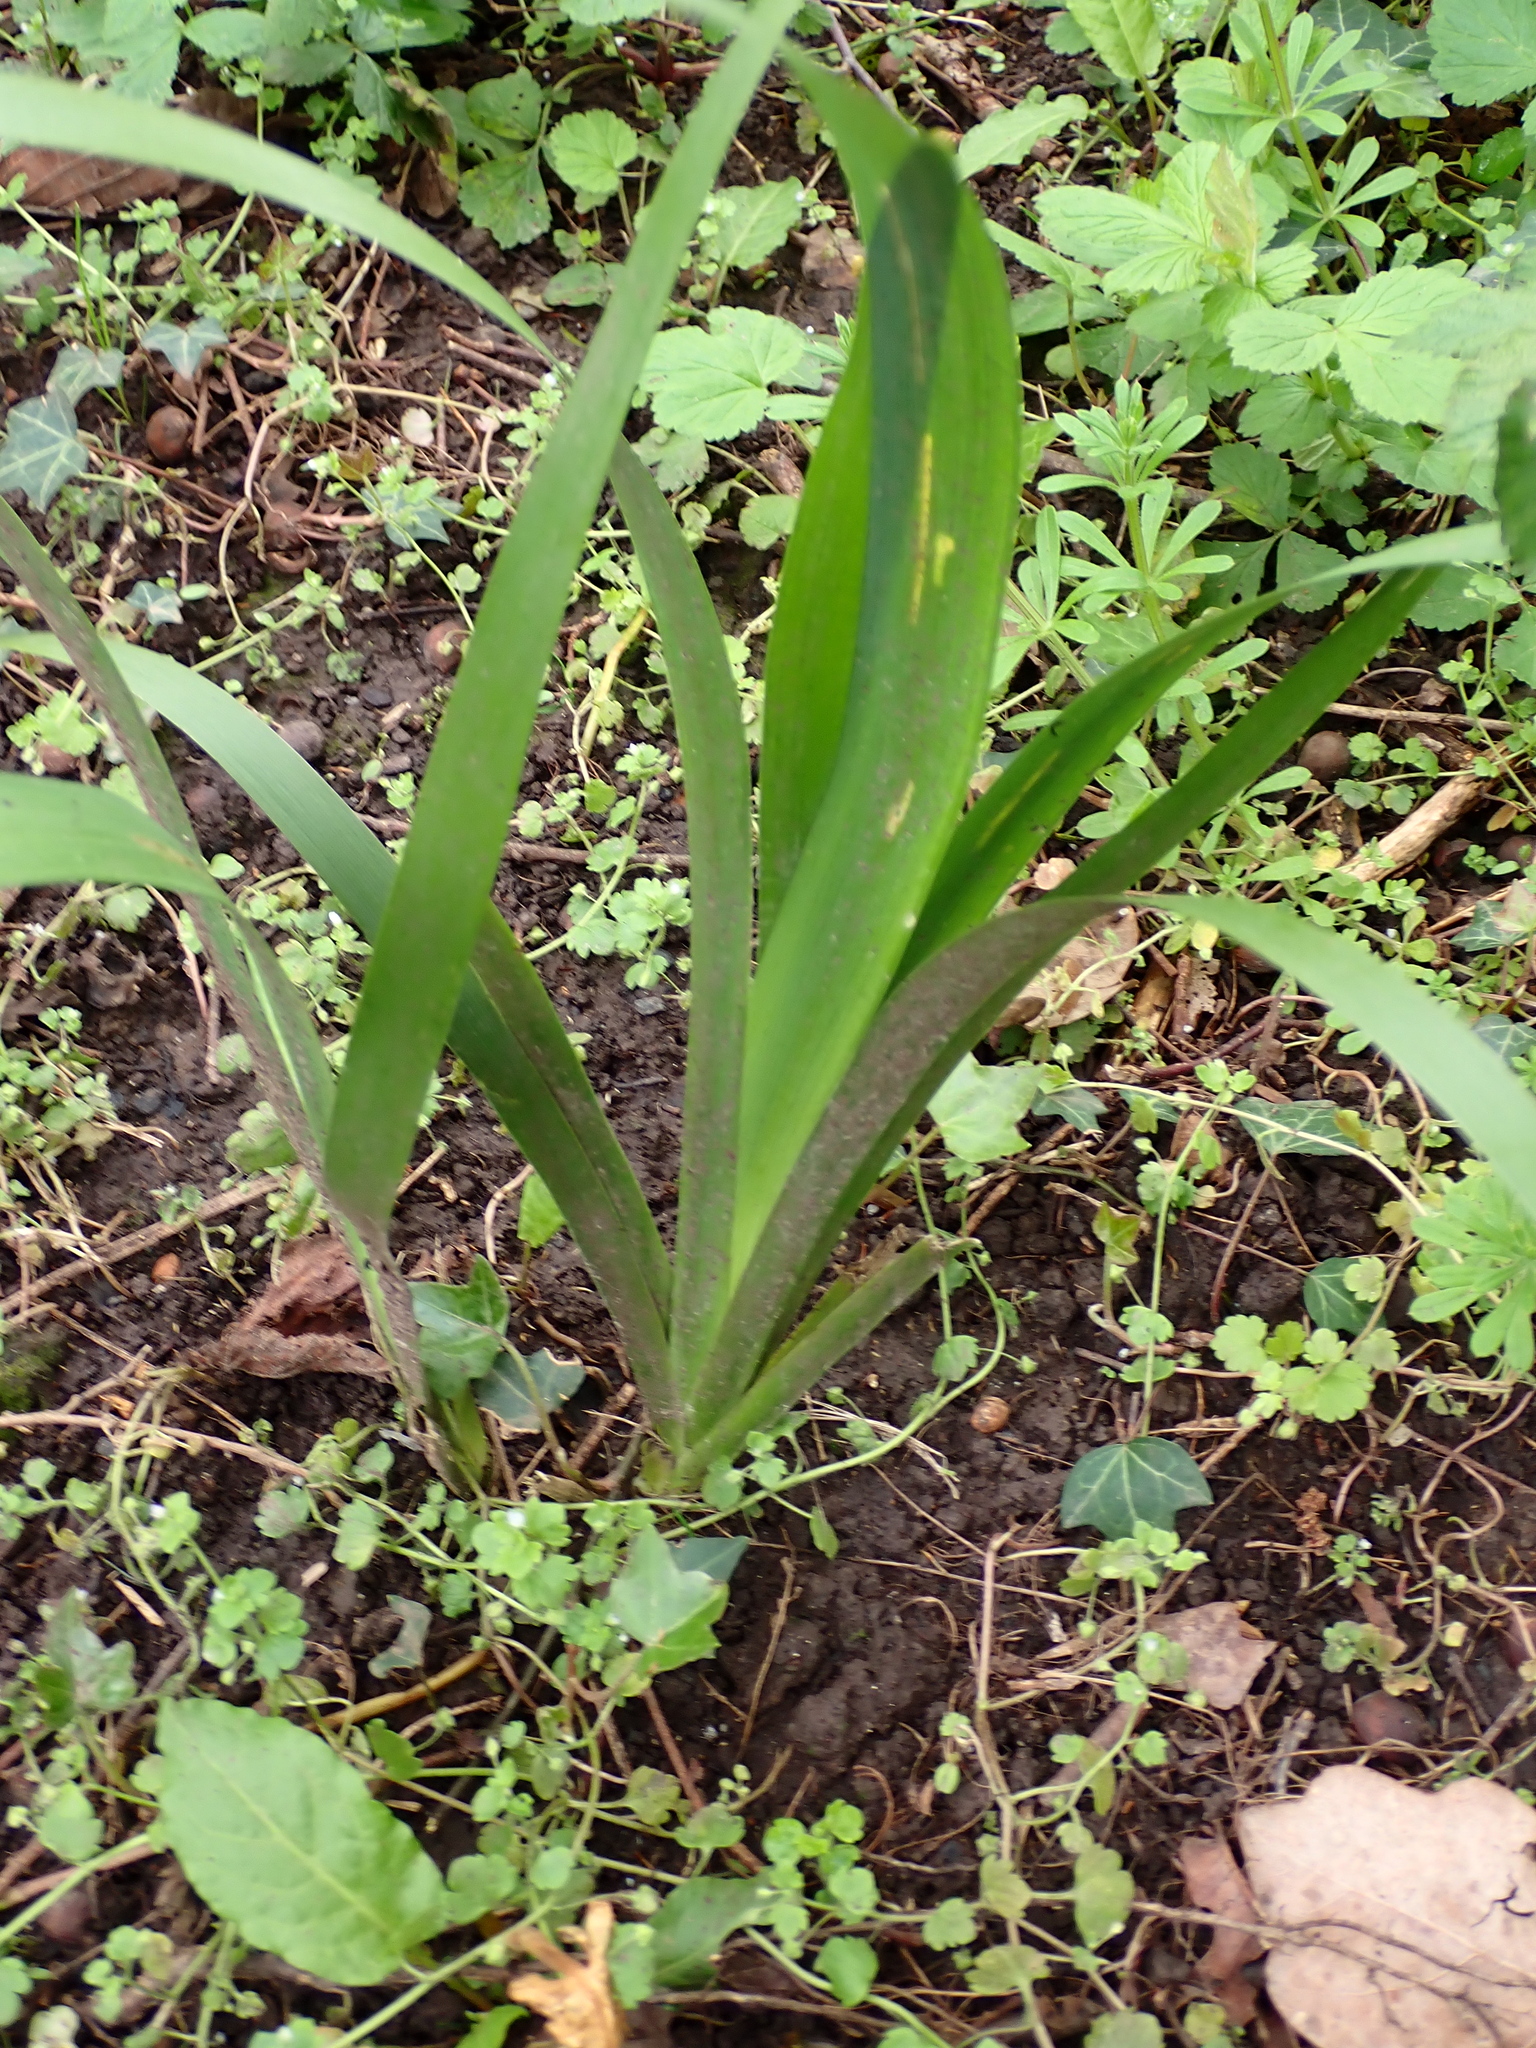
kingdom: Plantae
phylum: Tracheophyta
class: Liliopsida
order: Asparagales
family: Iridaceae
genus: Iris
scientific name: Iris foetidissima
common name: Stinking iris
